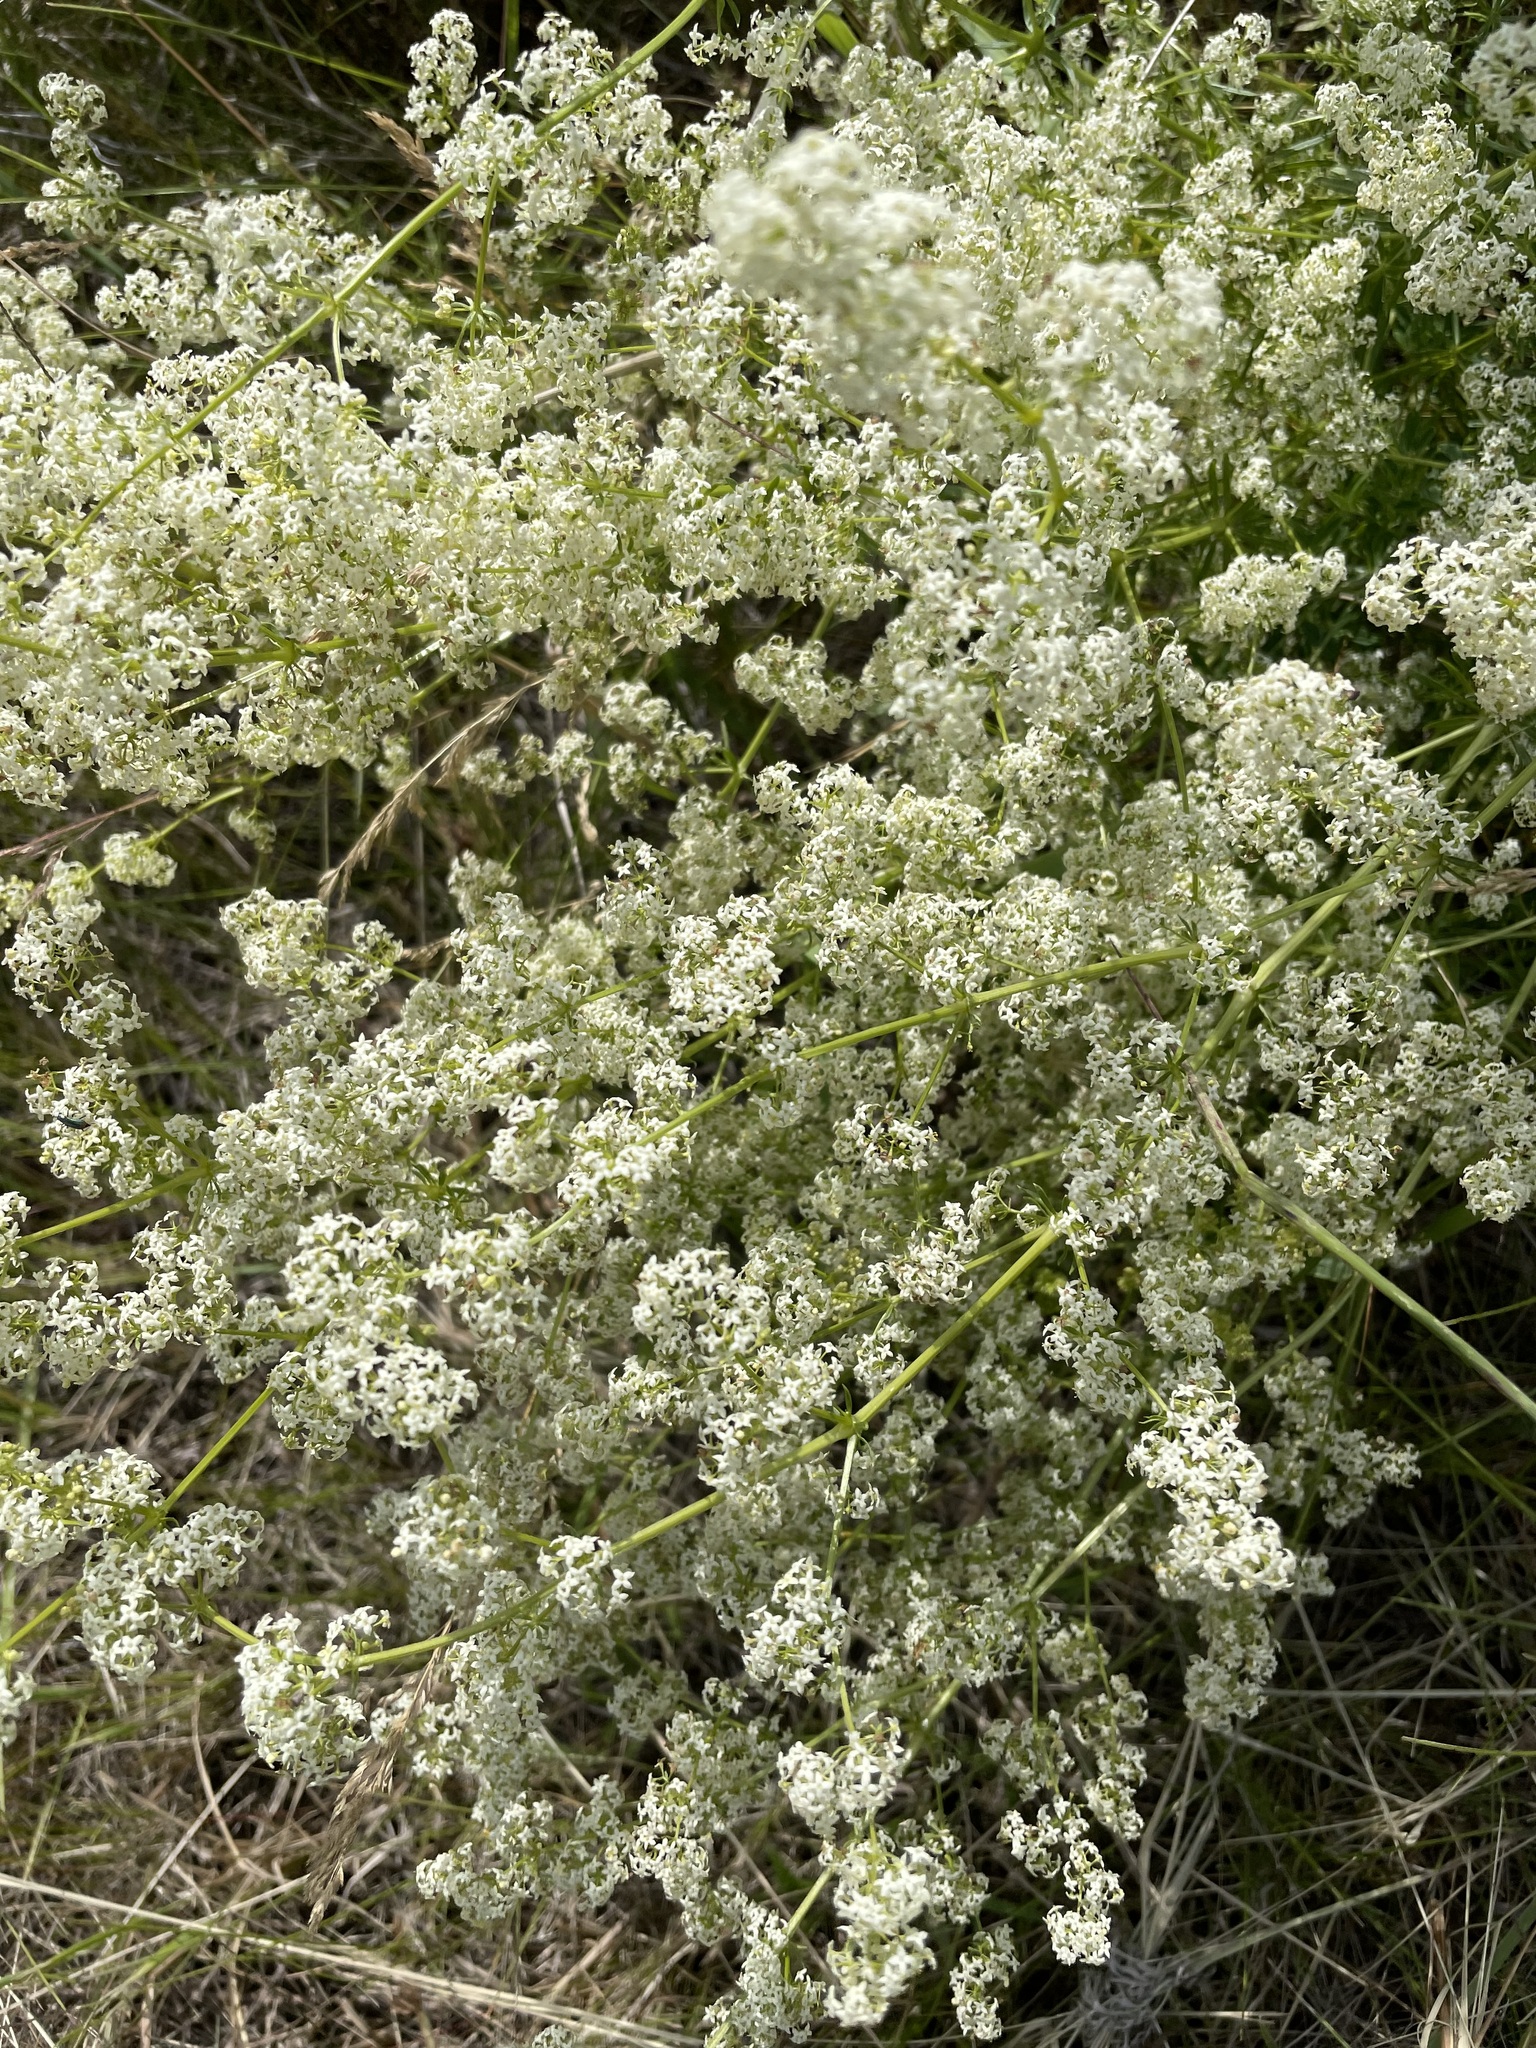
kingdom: Plantae
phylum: Tracheophyta
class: Magnoliopsida
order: Gentianales
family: Rubiaceae
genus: Galium
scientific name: Galium mollugo
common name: Hedge bedstraw
